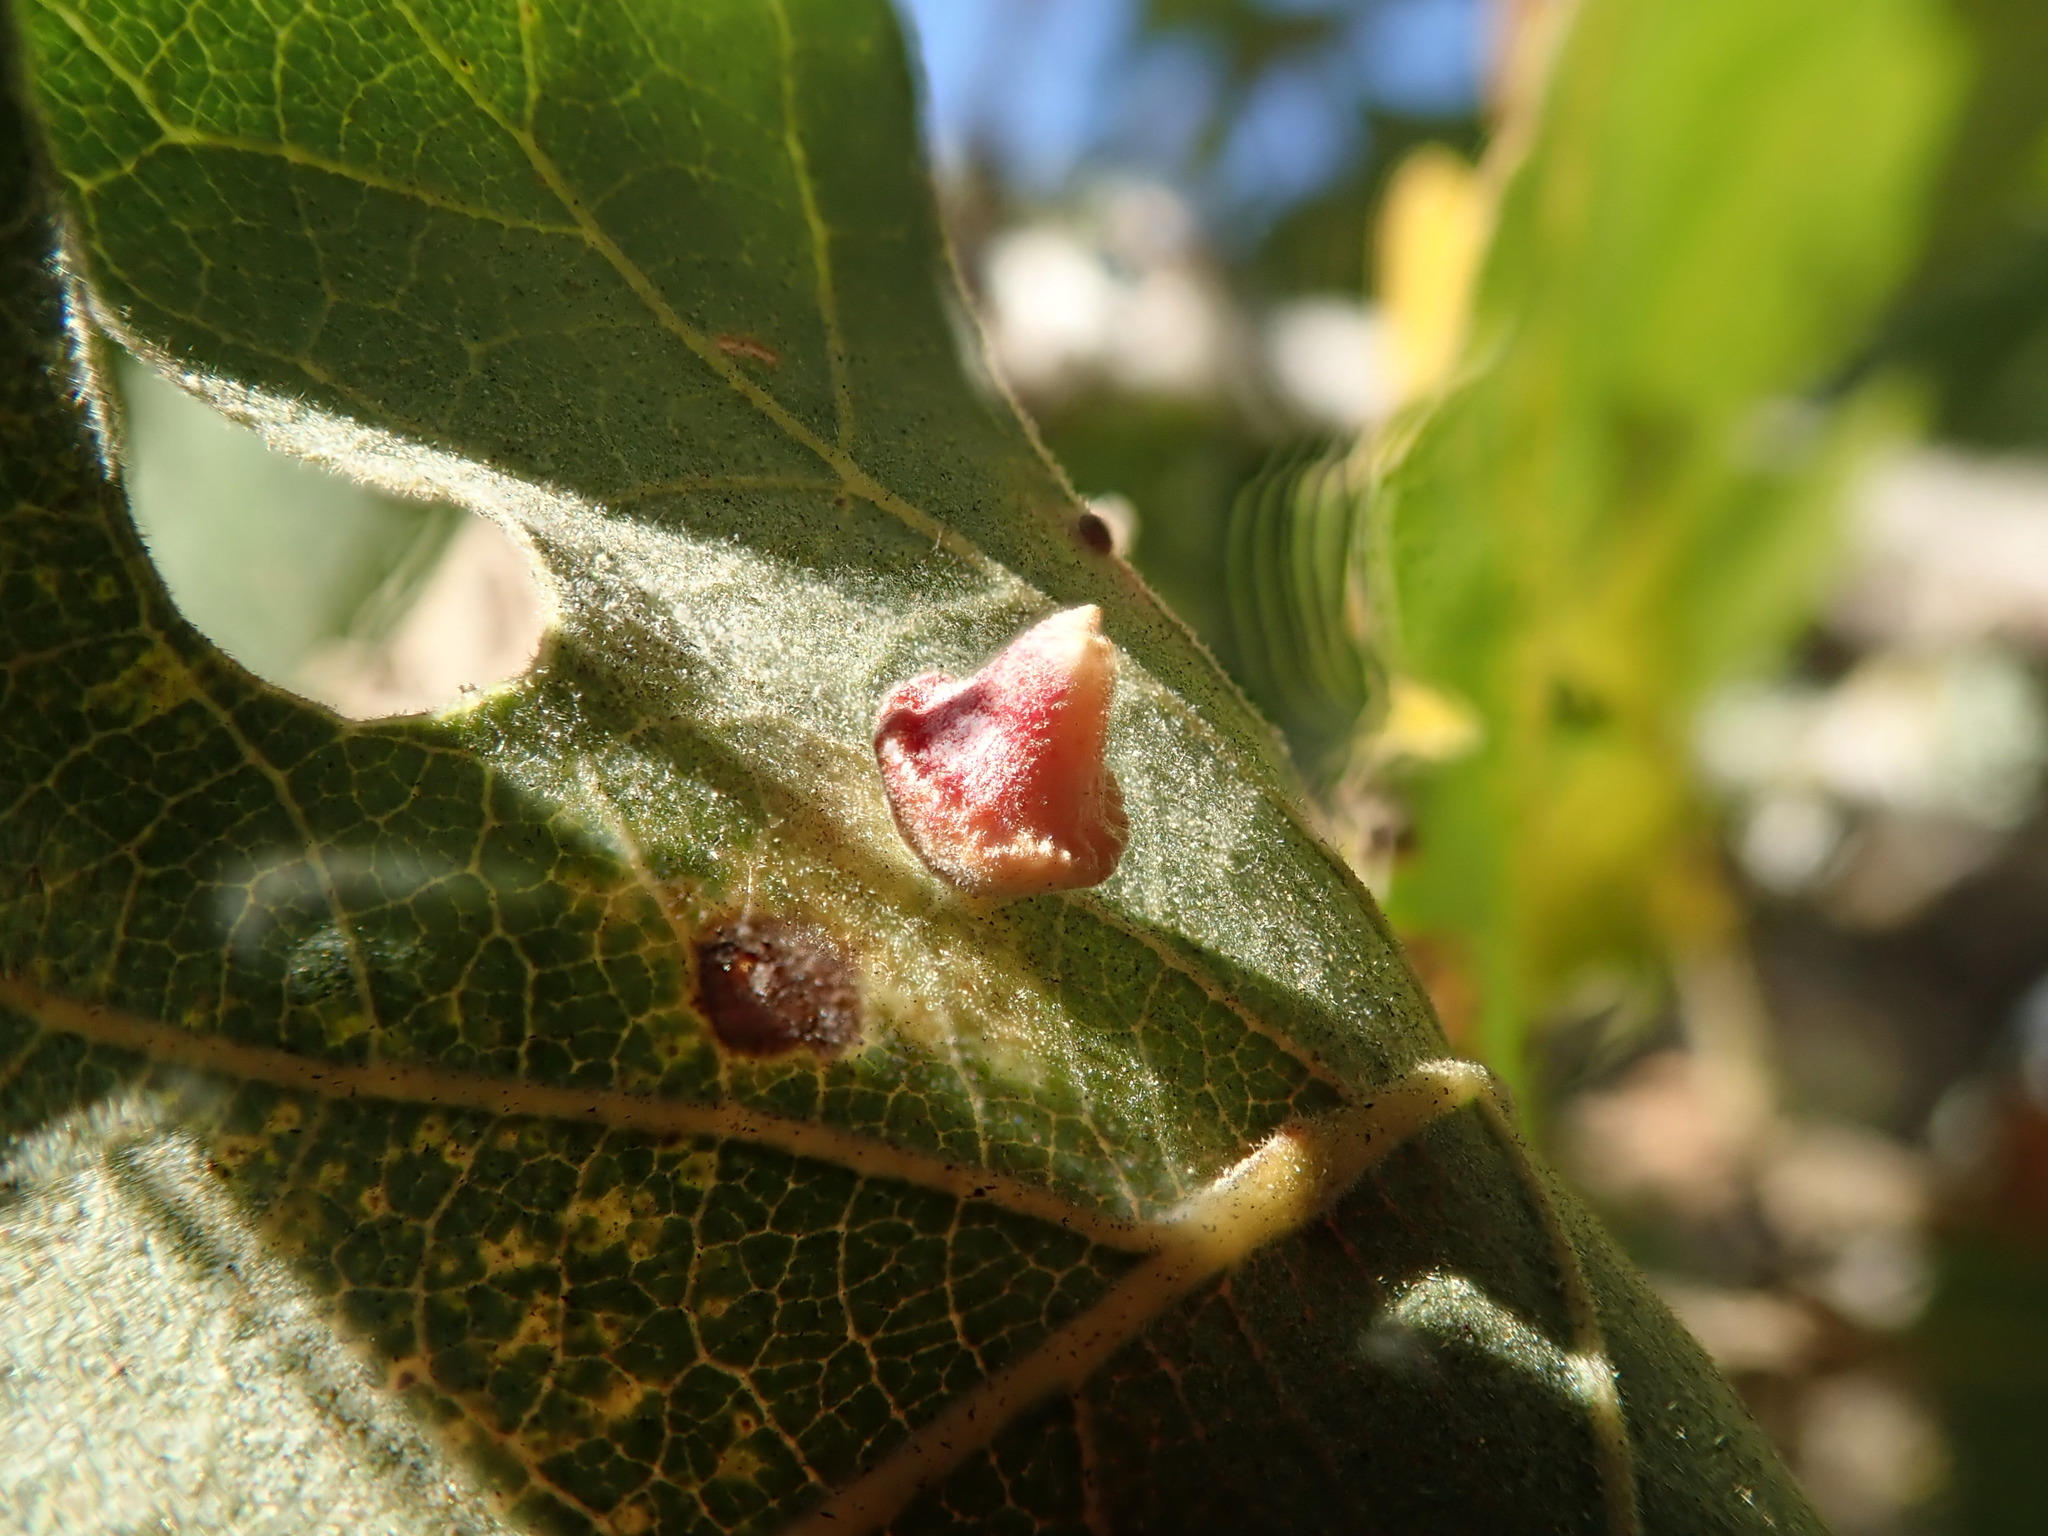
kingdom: Animalia
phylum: Arthropoda
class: Insecta
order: Hymenoptera
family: Cynipidae
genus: Andricus
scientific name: Andricus
